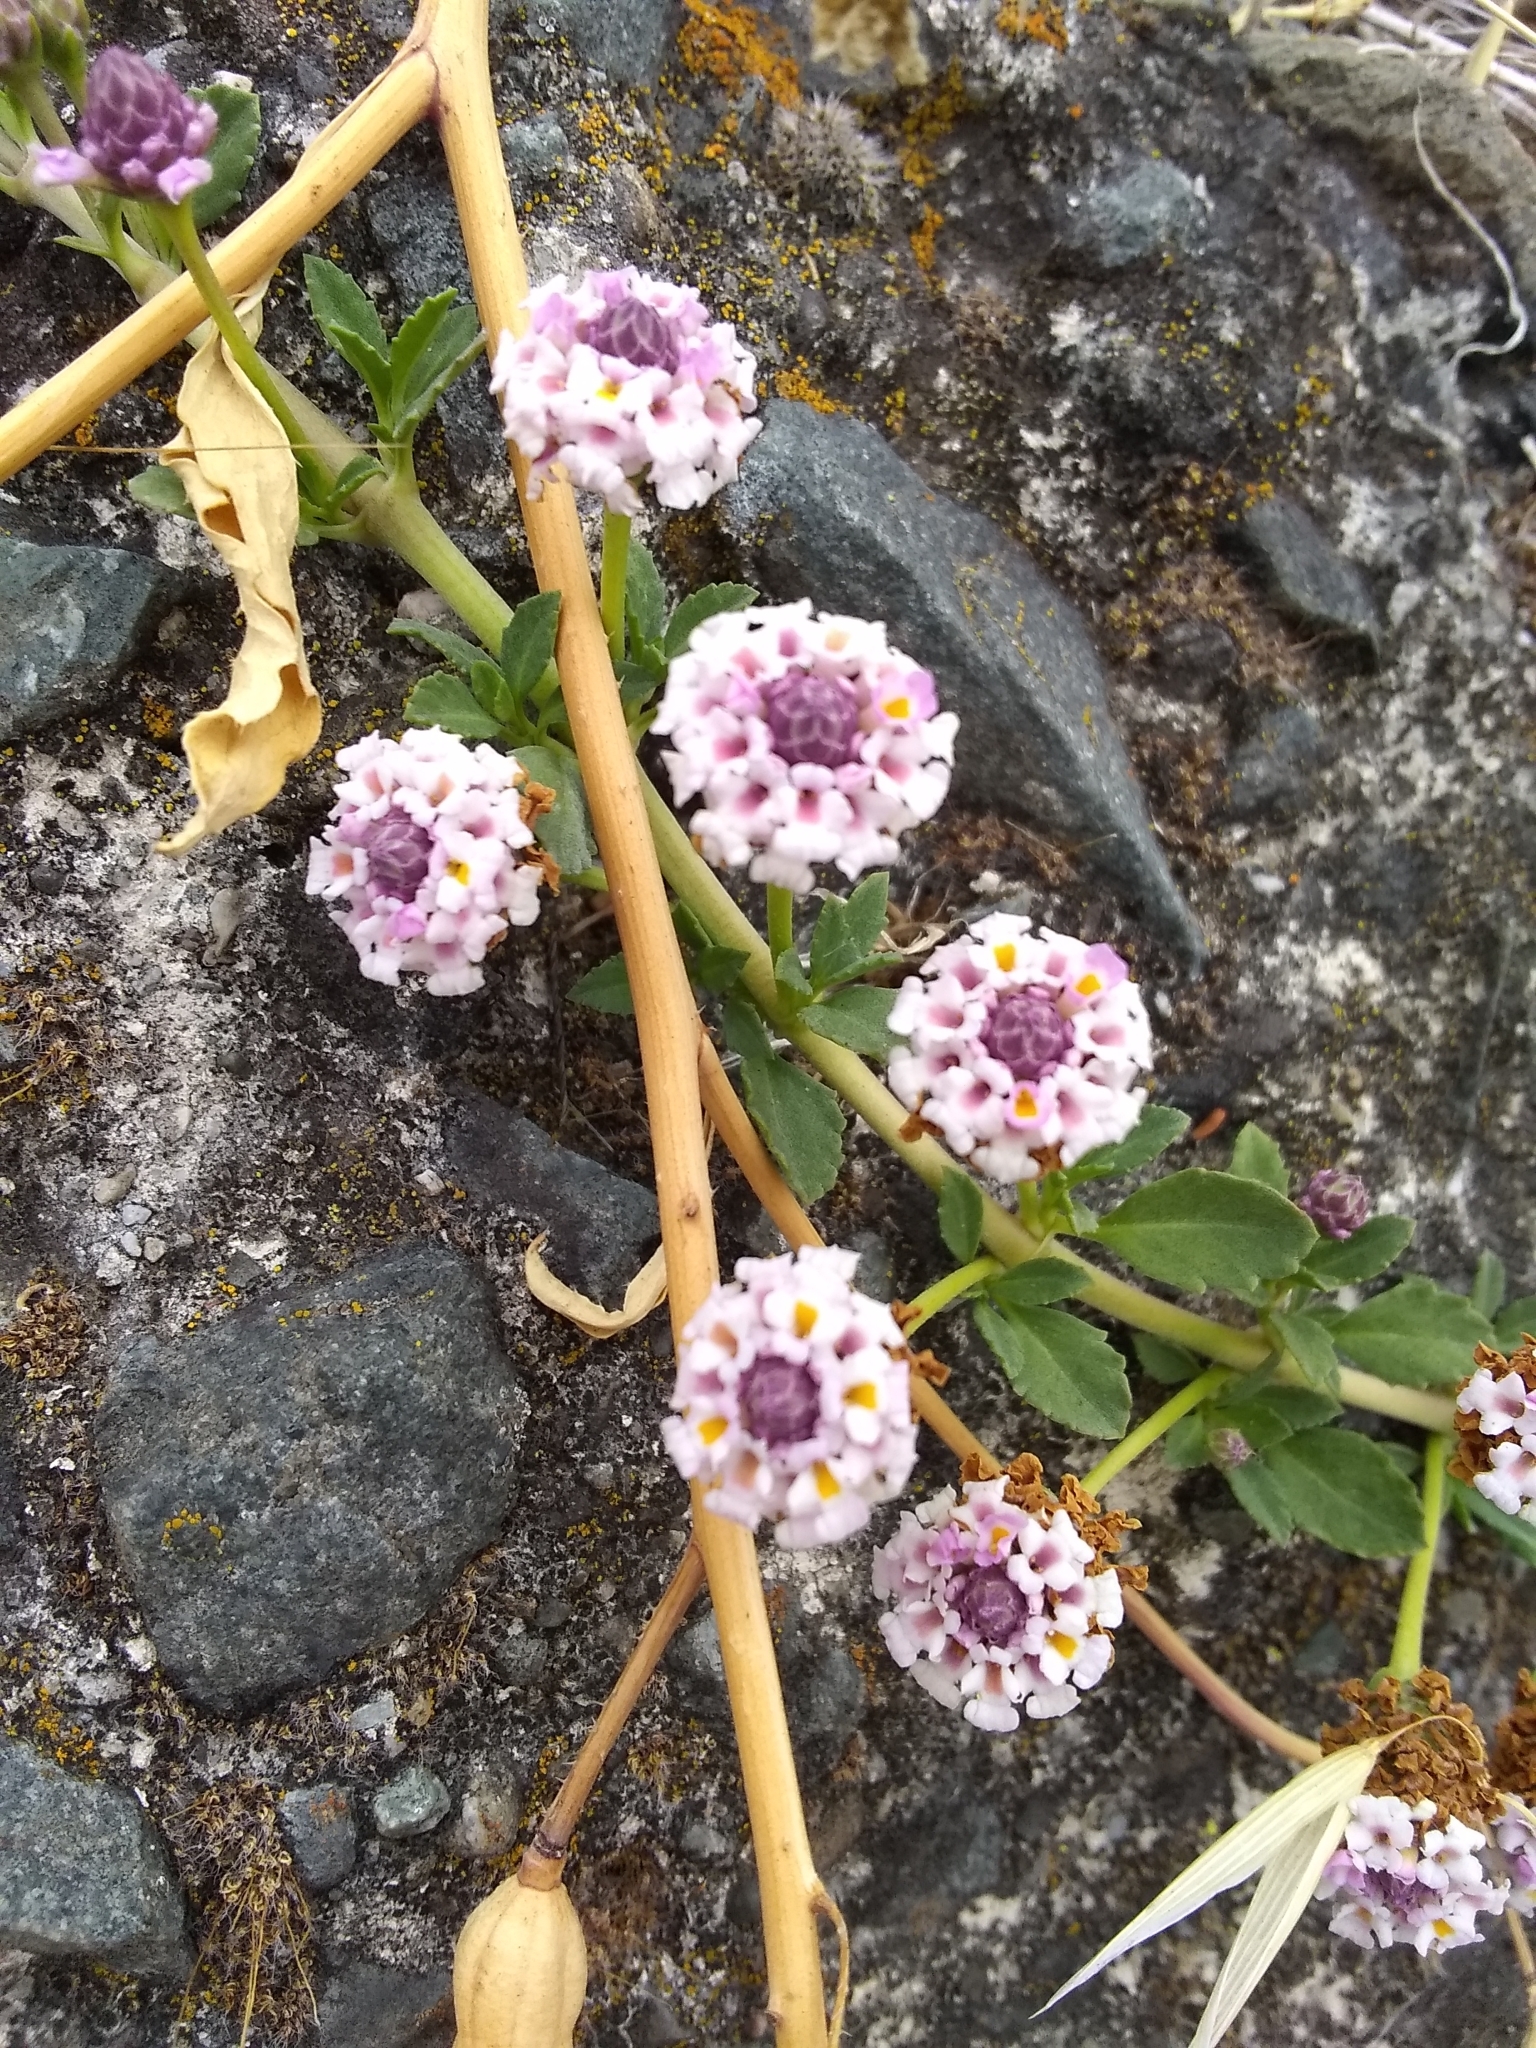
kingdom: Plantae
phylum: Tracheophyta
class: Magnoliopsida
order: Lamiales
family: Verbenaceae
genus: Phyla
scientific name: Phyla nodiflora
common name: Frogfruit
